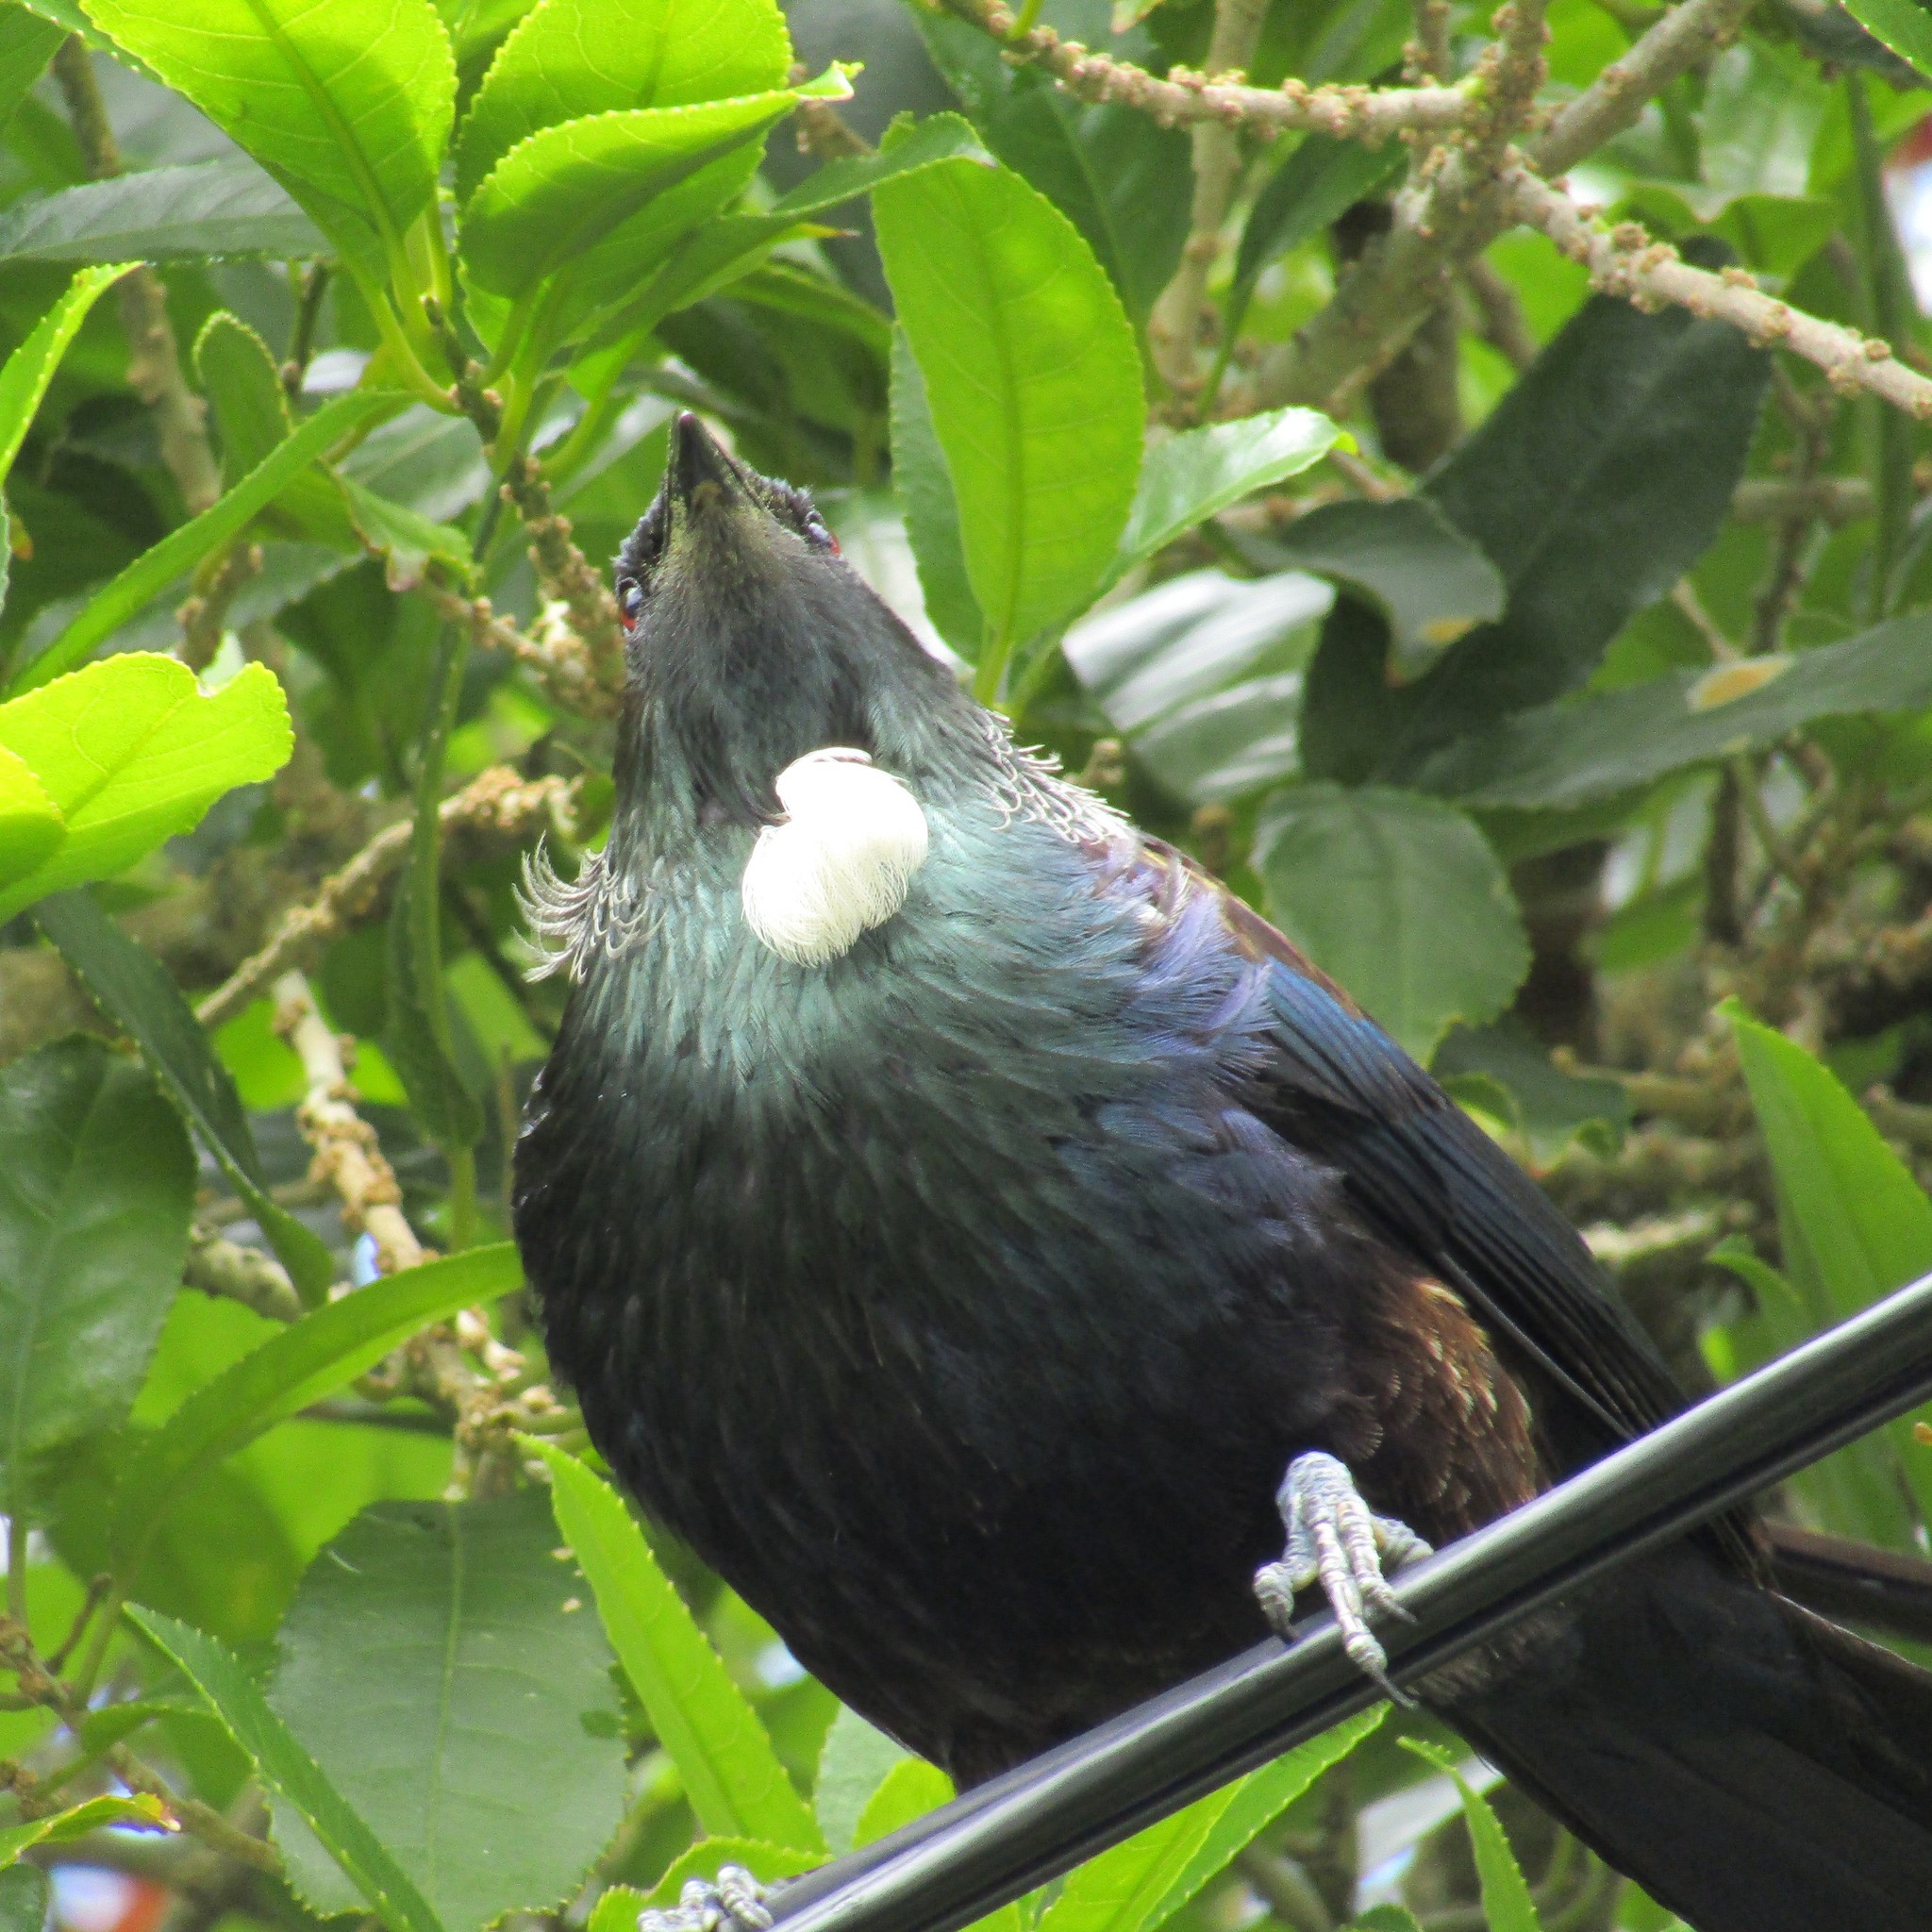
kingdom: Animalia
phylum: Chordata
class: Aves
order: Passeriformes
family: Meliphagidae
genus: Prosthemadera
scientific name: Prosthemadera novaeseelandiae
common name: Tui
